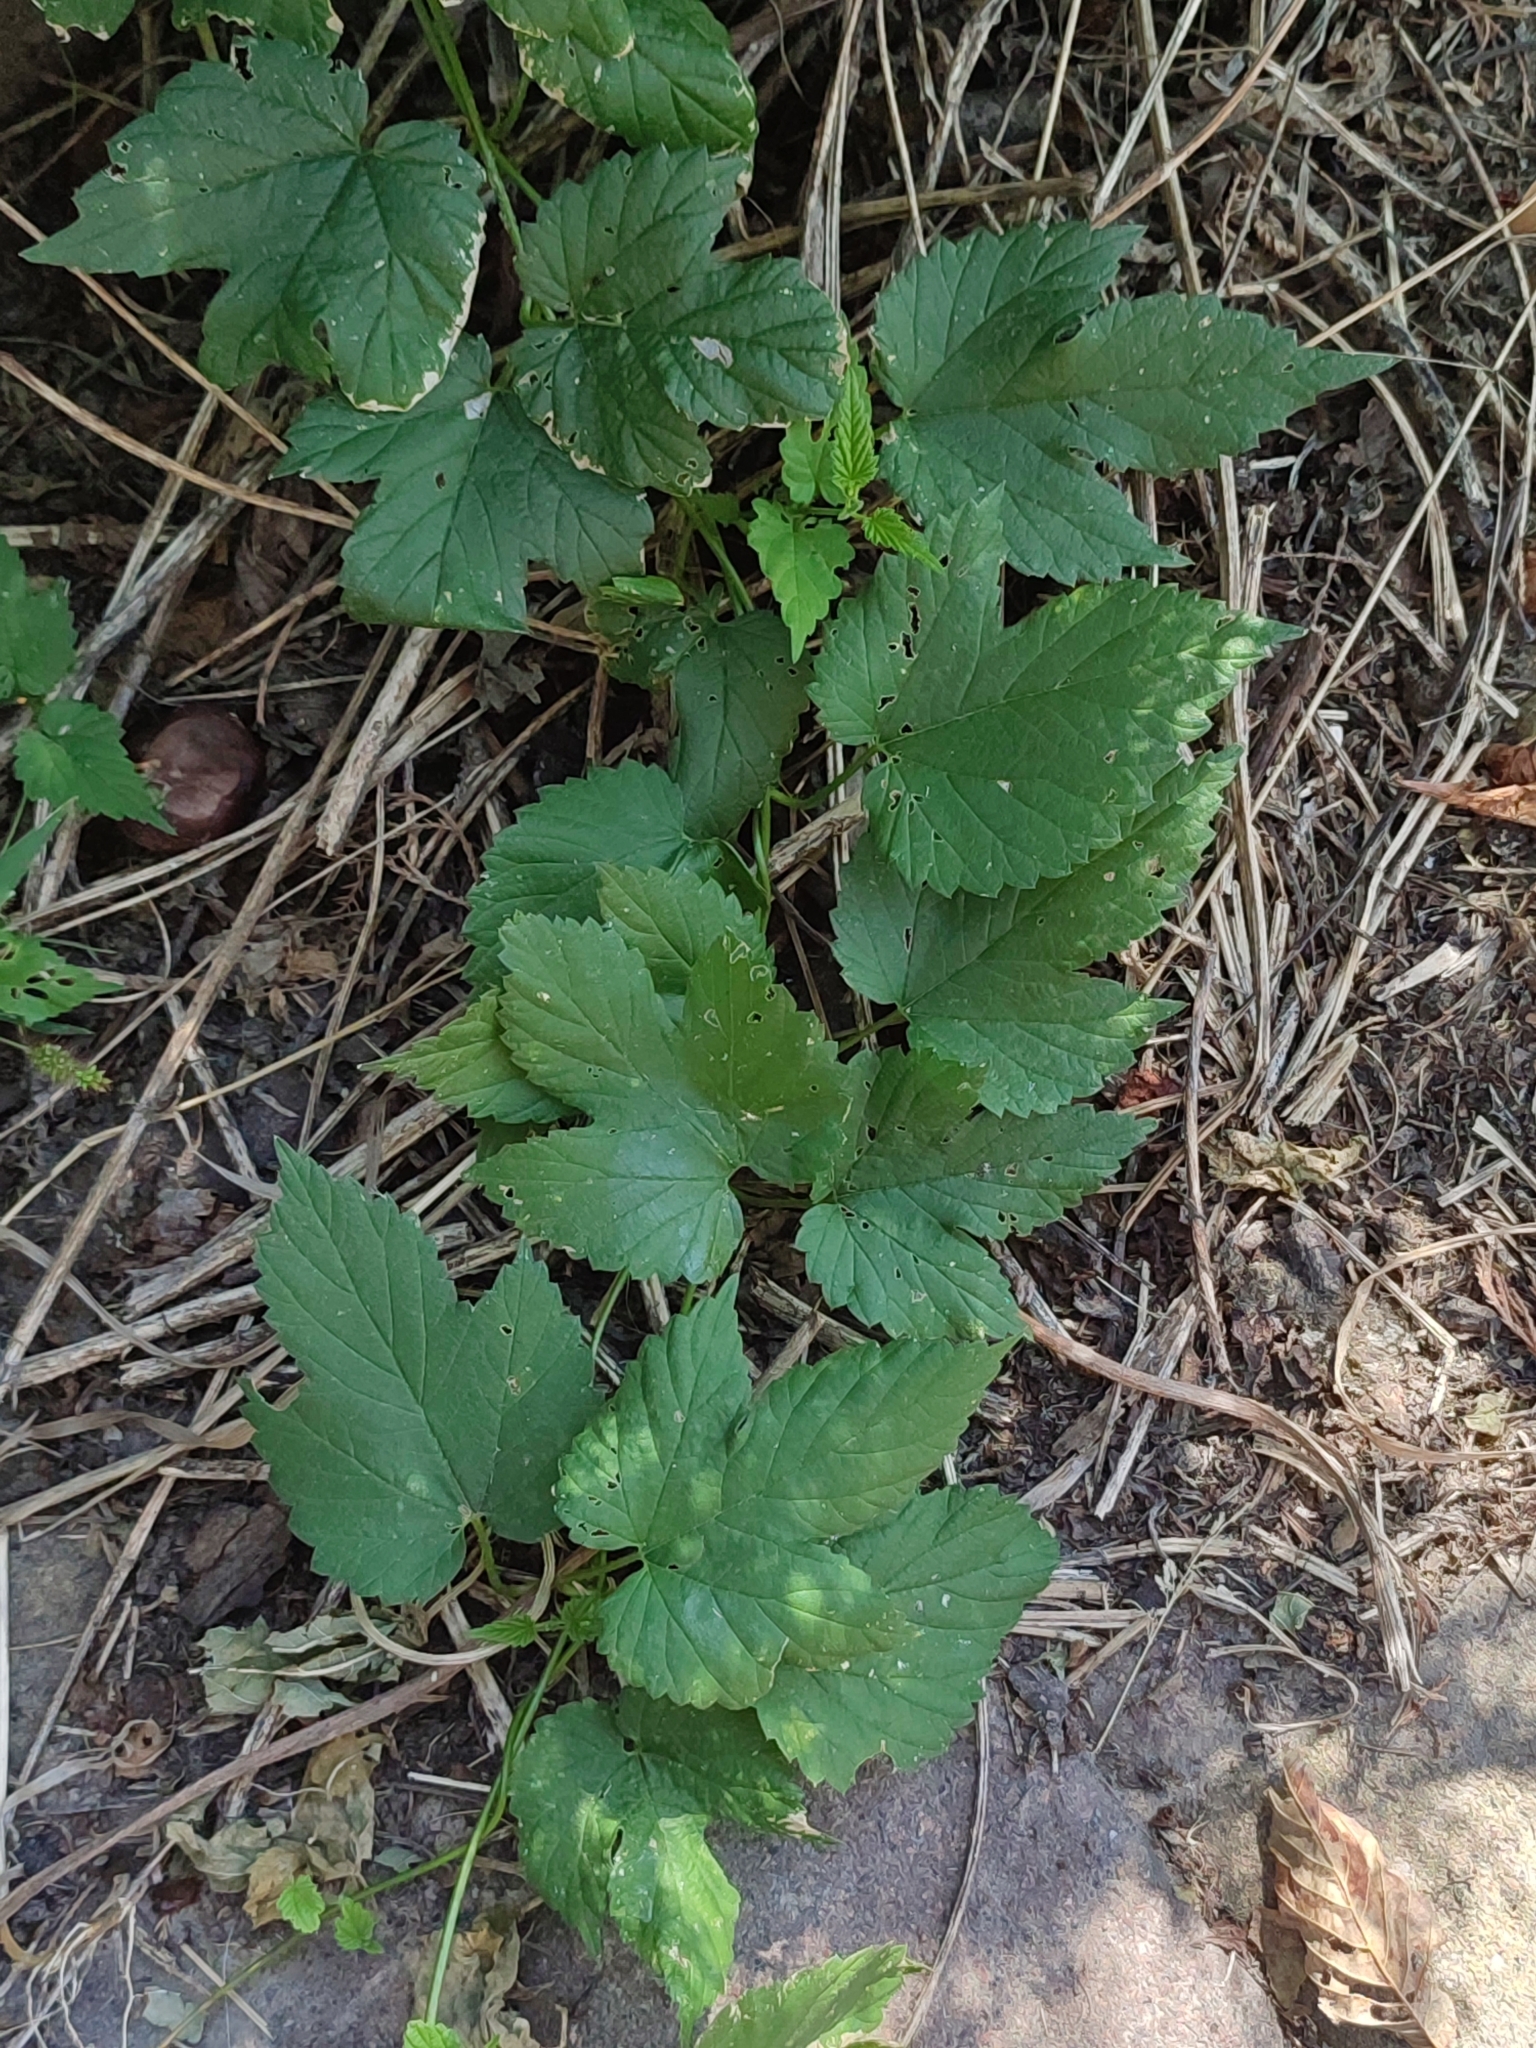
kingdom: Plantae
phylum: Tracheophyta
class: Magnoliopsida
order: Rosales
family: Cannabaceae
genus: Humulus
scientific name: Humulus lupulus
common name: Hop
